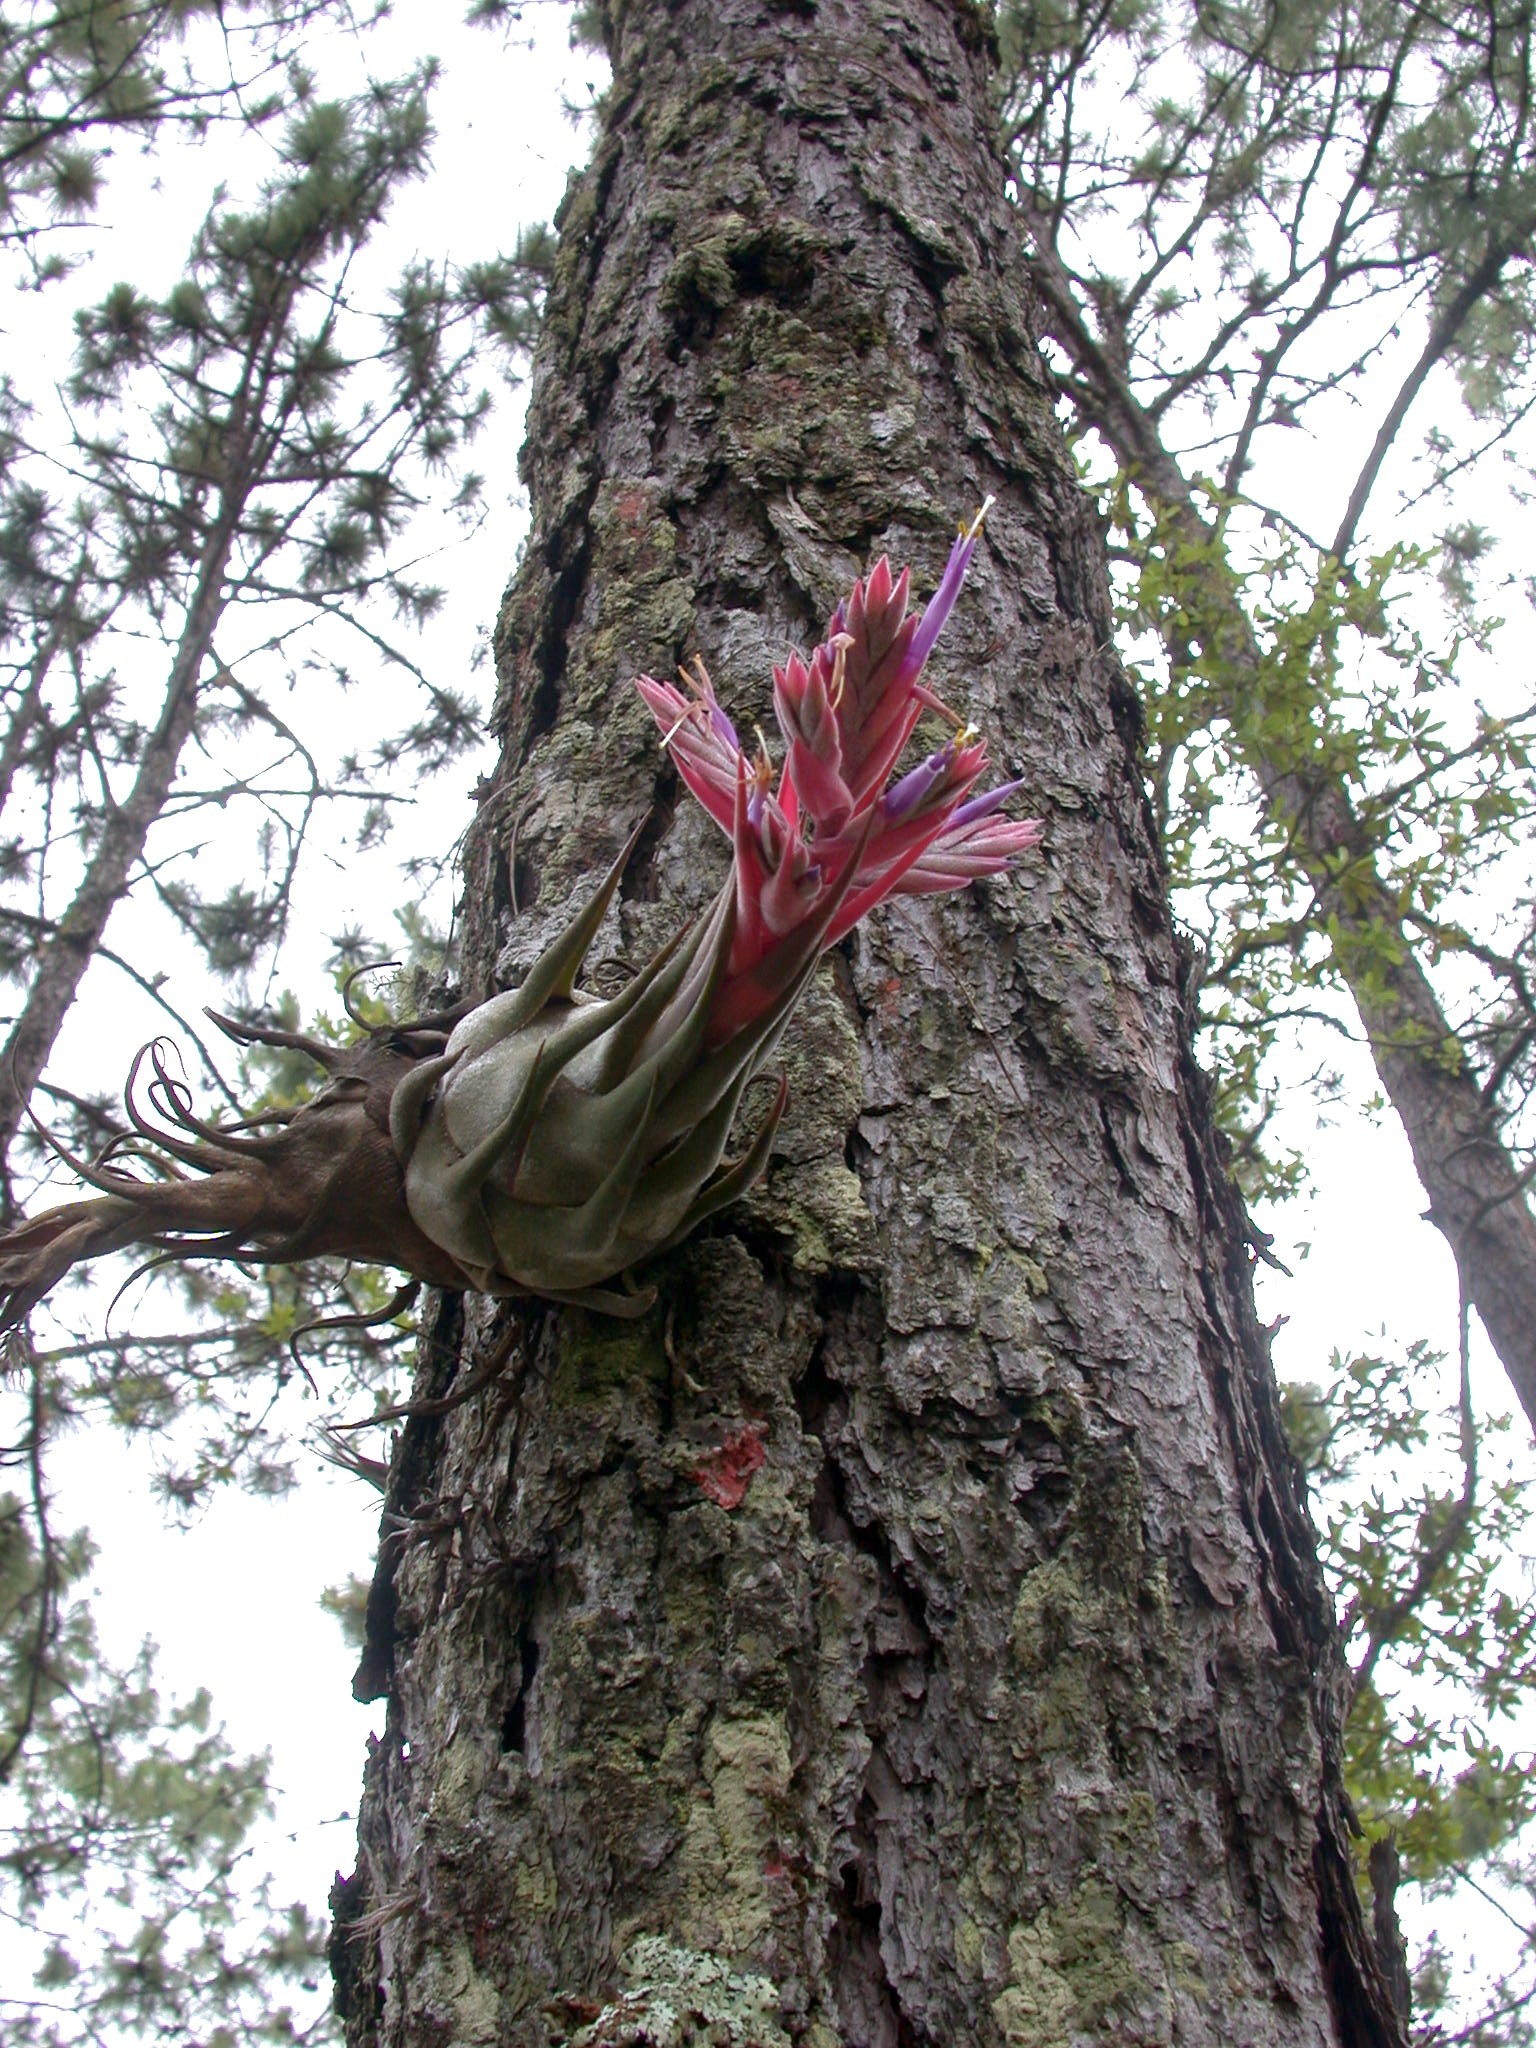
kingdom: Plantae
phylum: Tracheophyta
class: Liliopsida
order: Poales
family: Bromeliaceae
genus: Tillandsia
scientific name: Tillandsia seleriana
